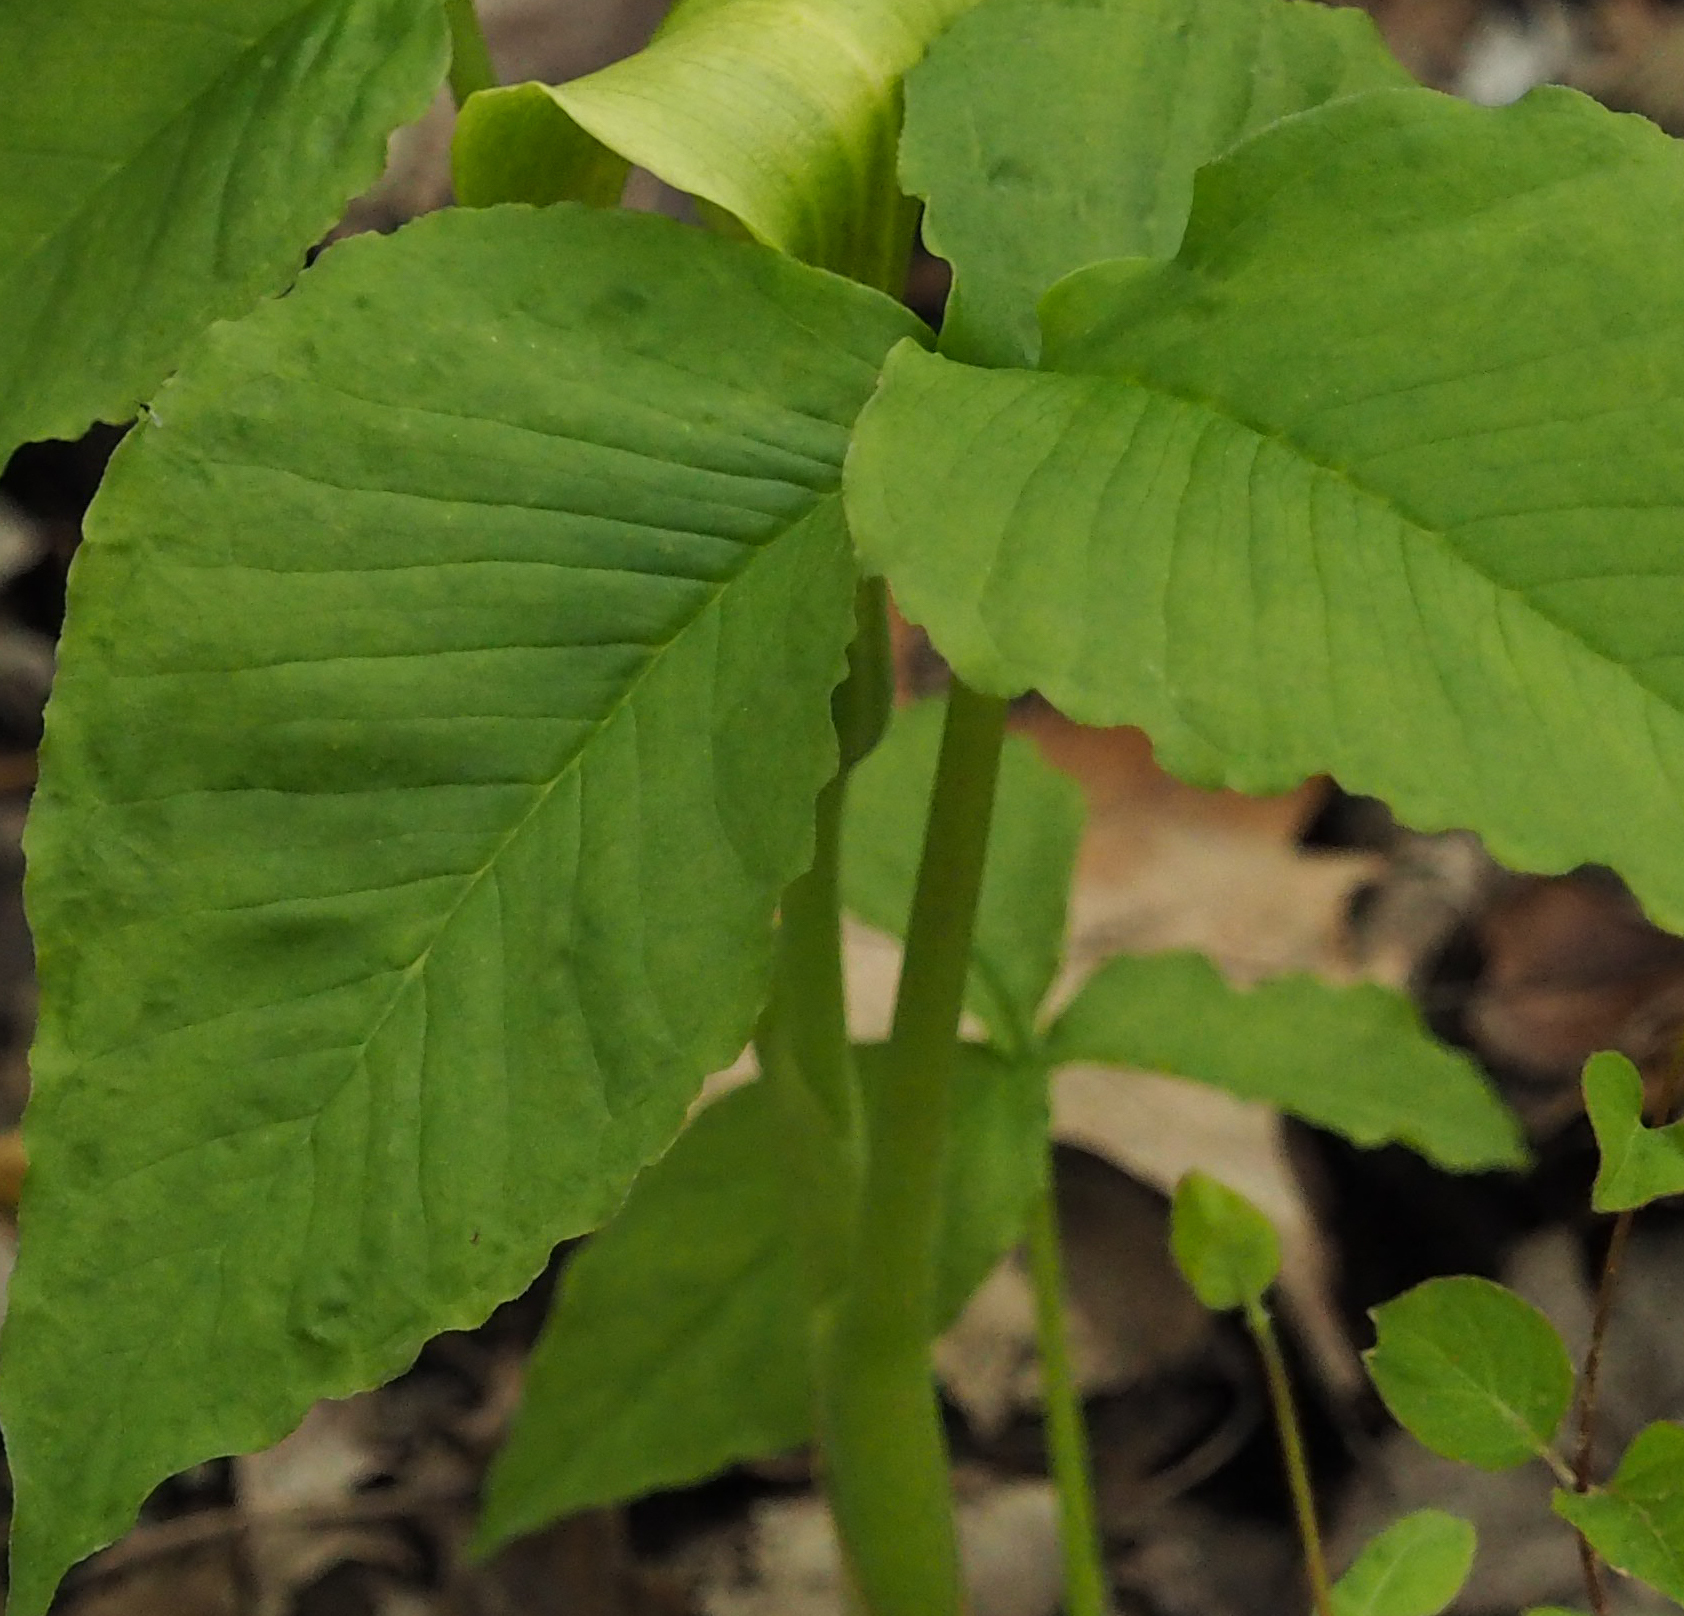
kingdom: Plantae
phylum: Tracheophyta
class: Liliopsida
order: Alismatales
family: Araceae
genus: Arisaema
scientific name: Arisaema triphyllum
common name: Jack-in-the-pulpit
